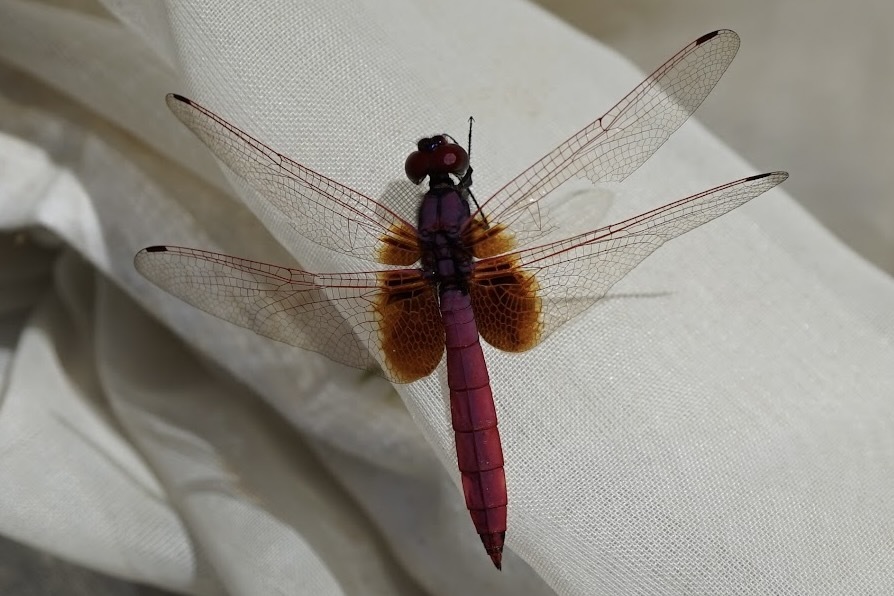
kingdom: Animalia
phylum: Arthropoda
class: Insecta
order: Odonata
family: Libellulidae
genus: Trithemis
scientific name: Trithemis aurora
